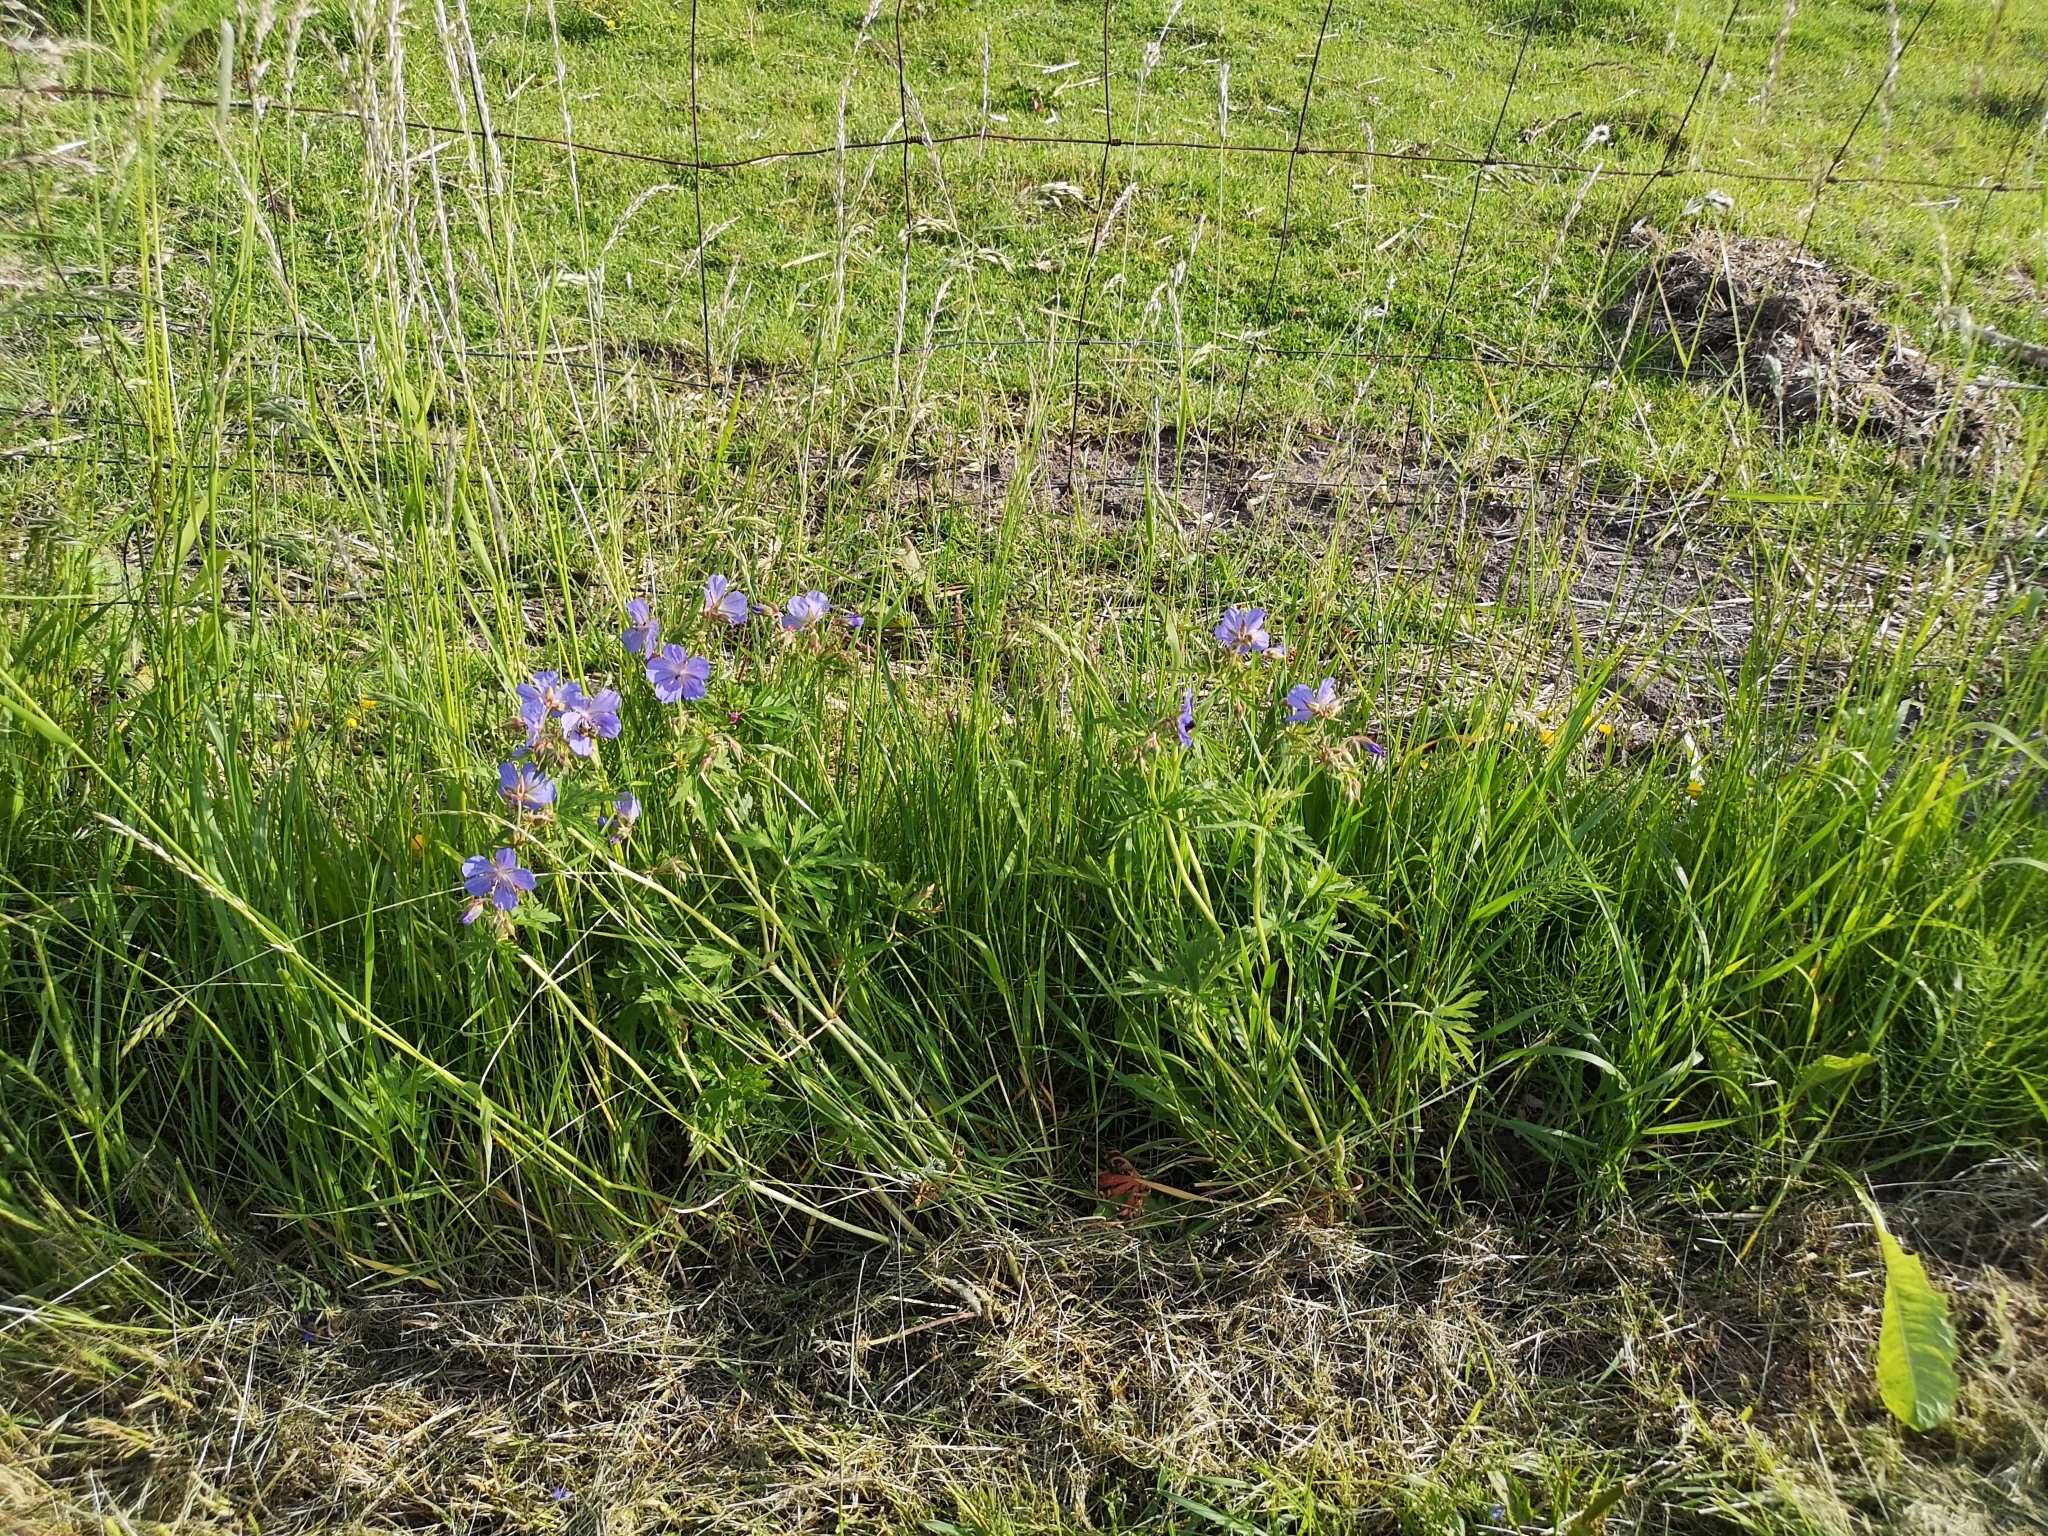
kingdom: Plantae
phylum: Tracheophyta
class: Magnoliopsida
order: Geraniales
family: Geraniaceae
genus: Geranium
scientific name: Geranium pratense
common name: Meadow crane's-bill
